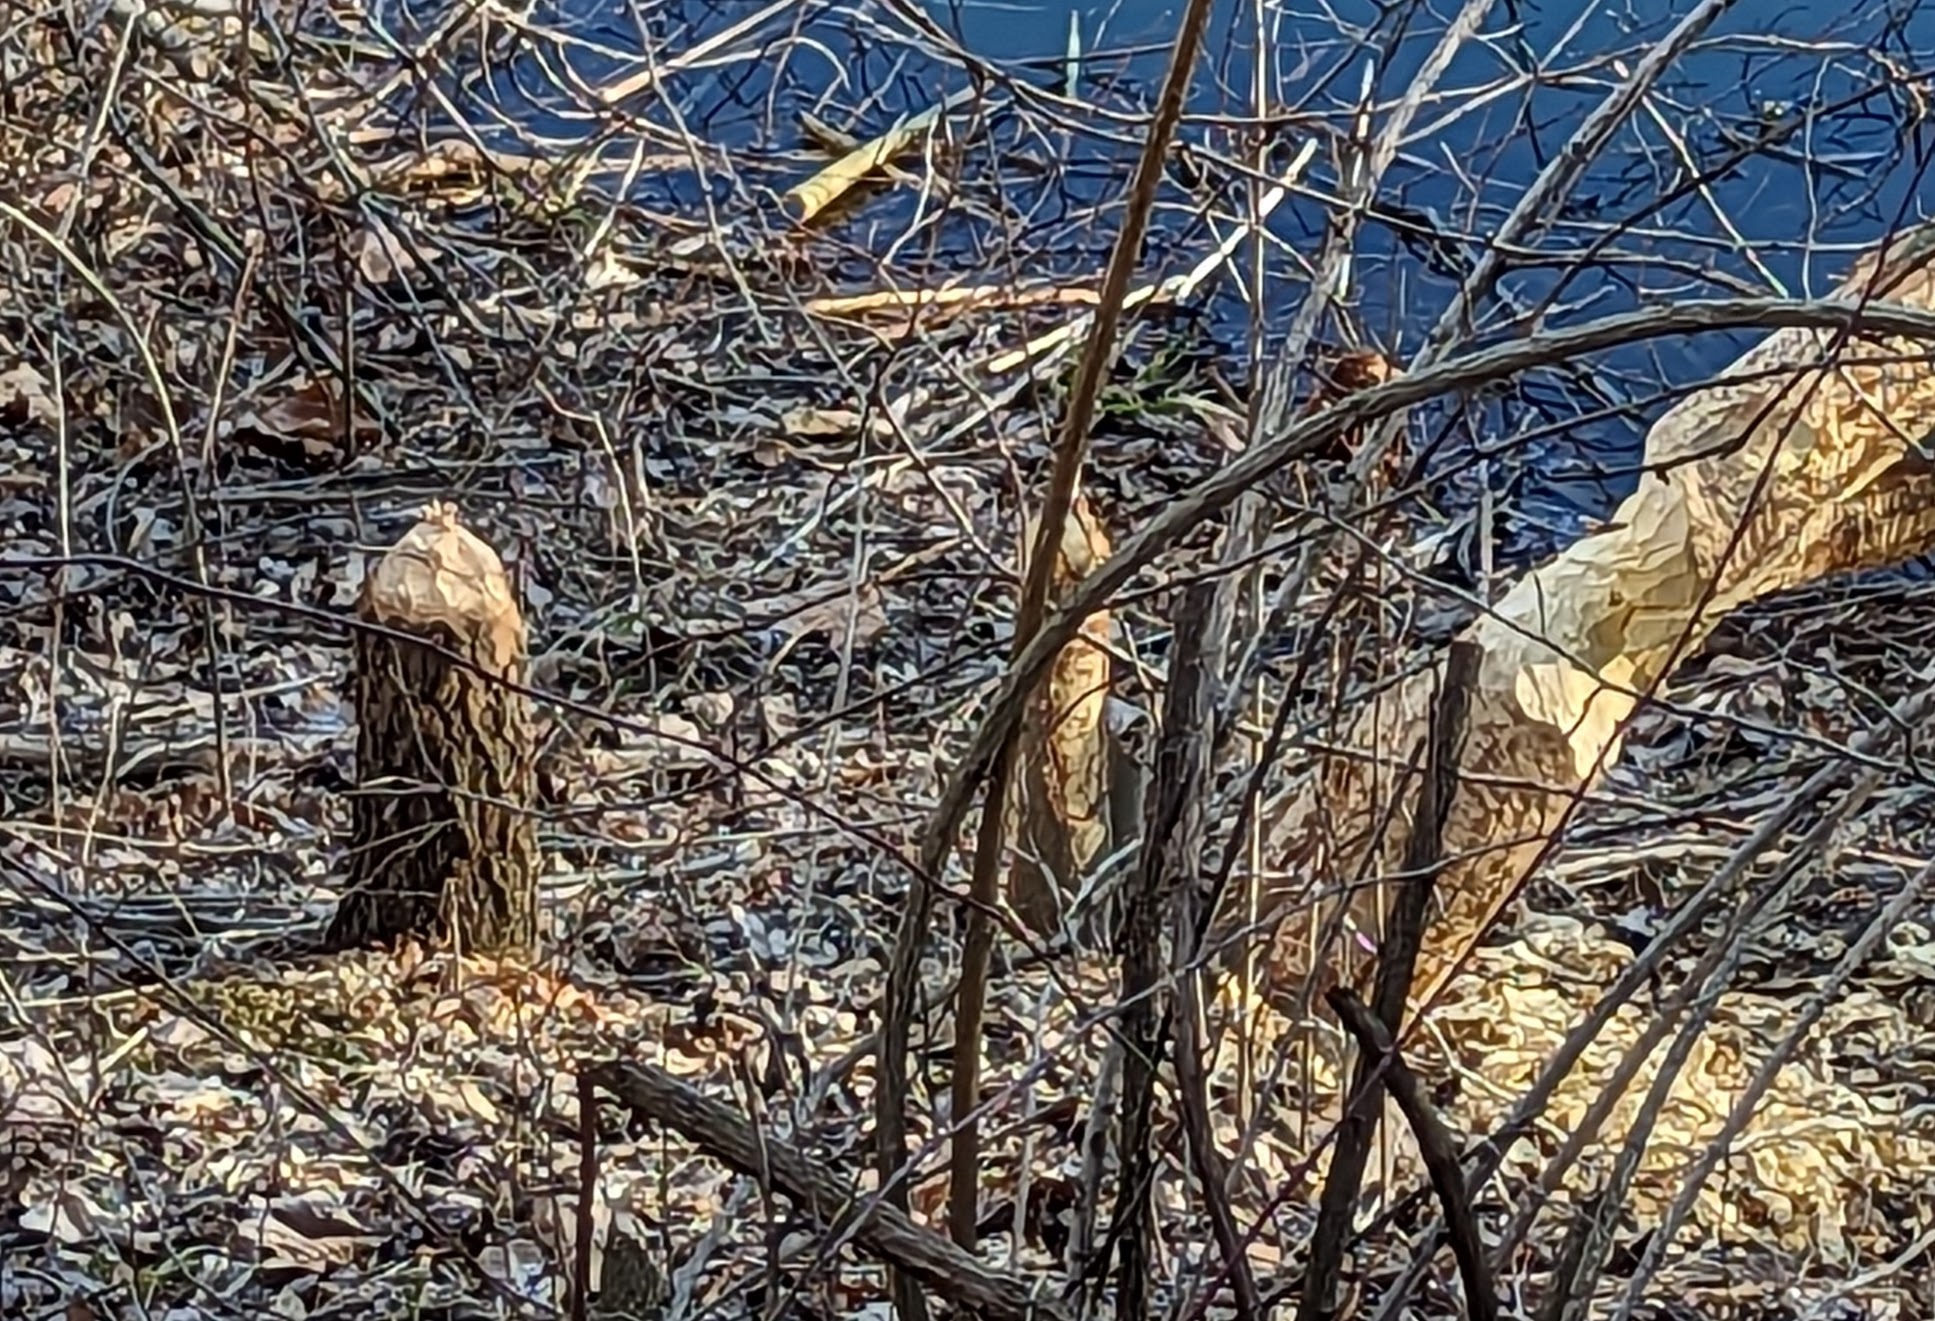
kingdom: Animalia
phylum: Chordata
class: Mammalia
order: Rodentia
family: Castoridae
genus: Castor
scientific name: Castor canadensis
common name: American beaver
